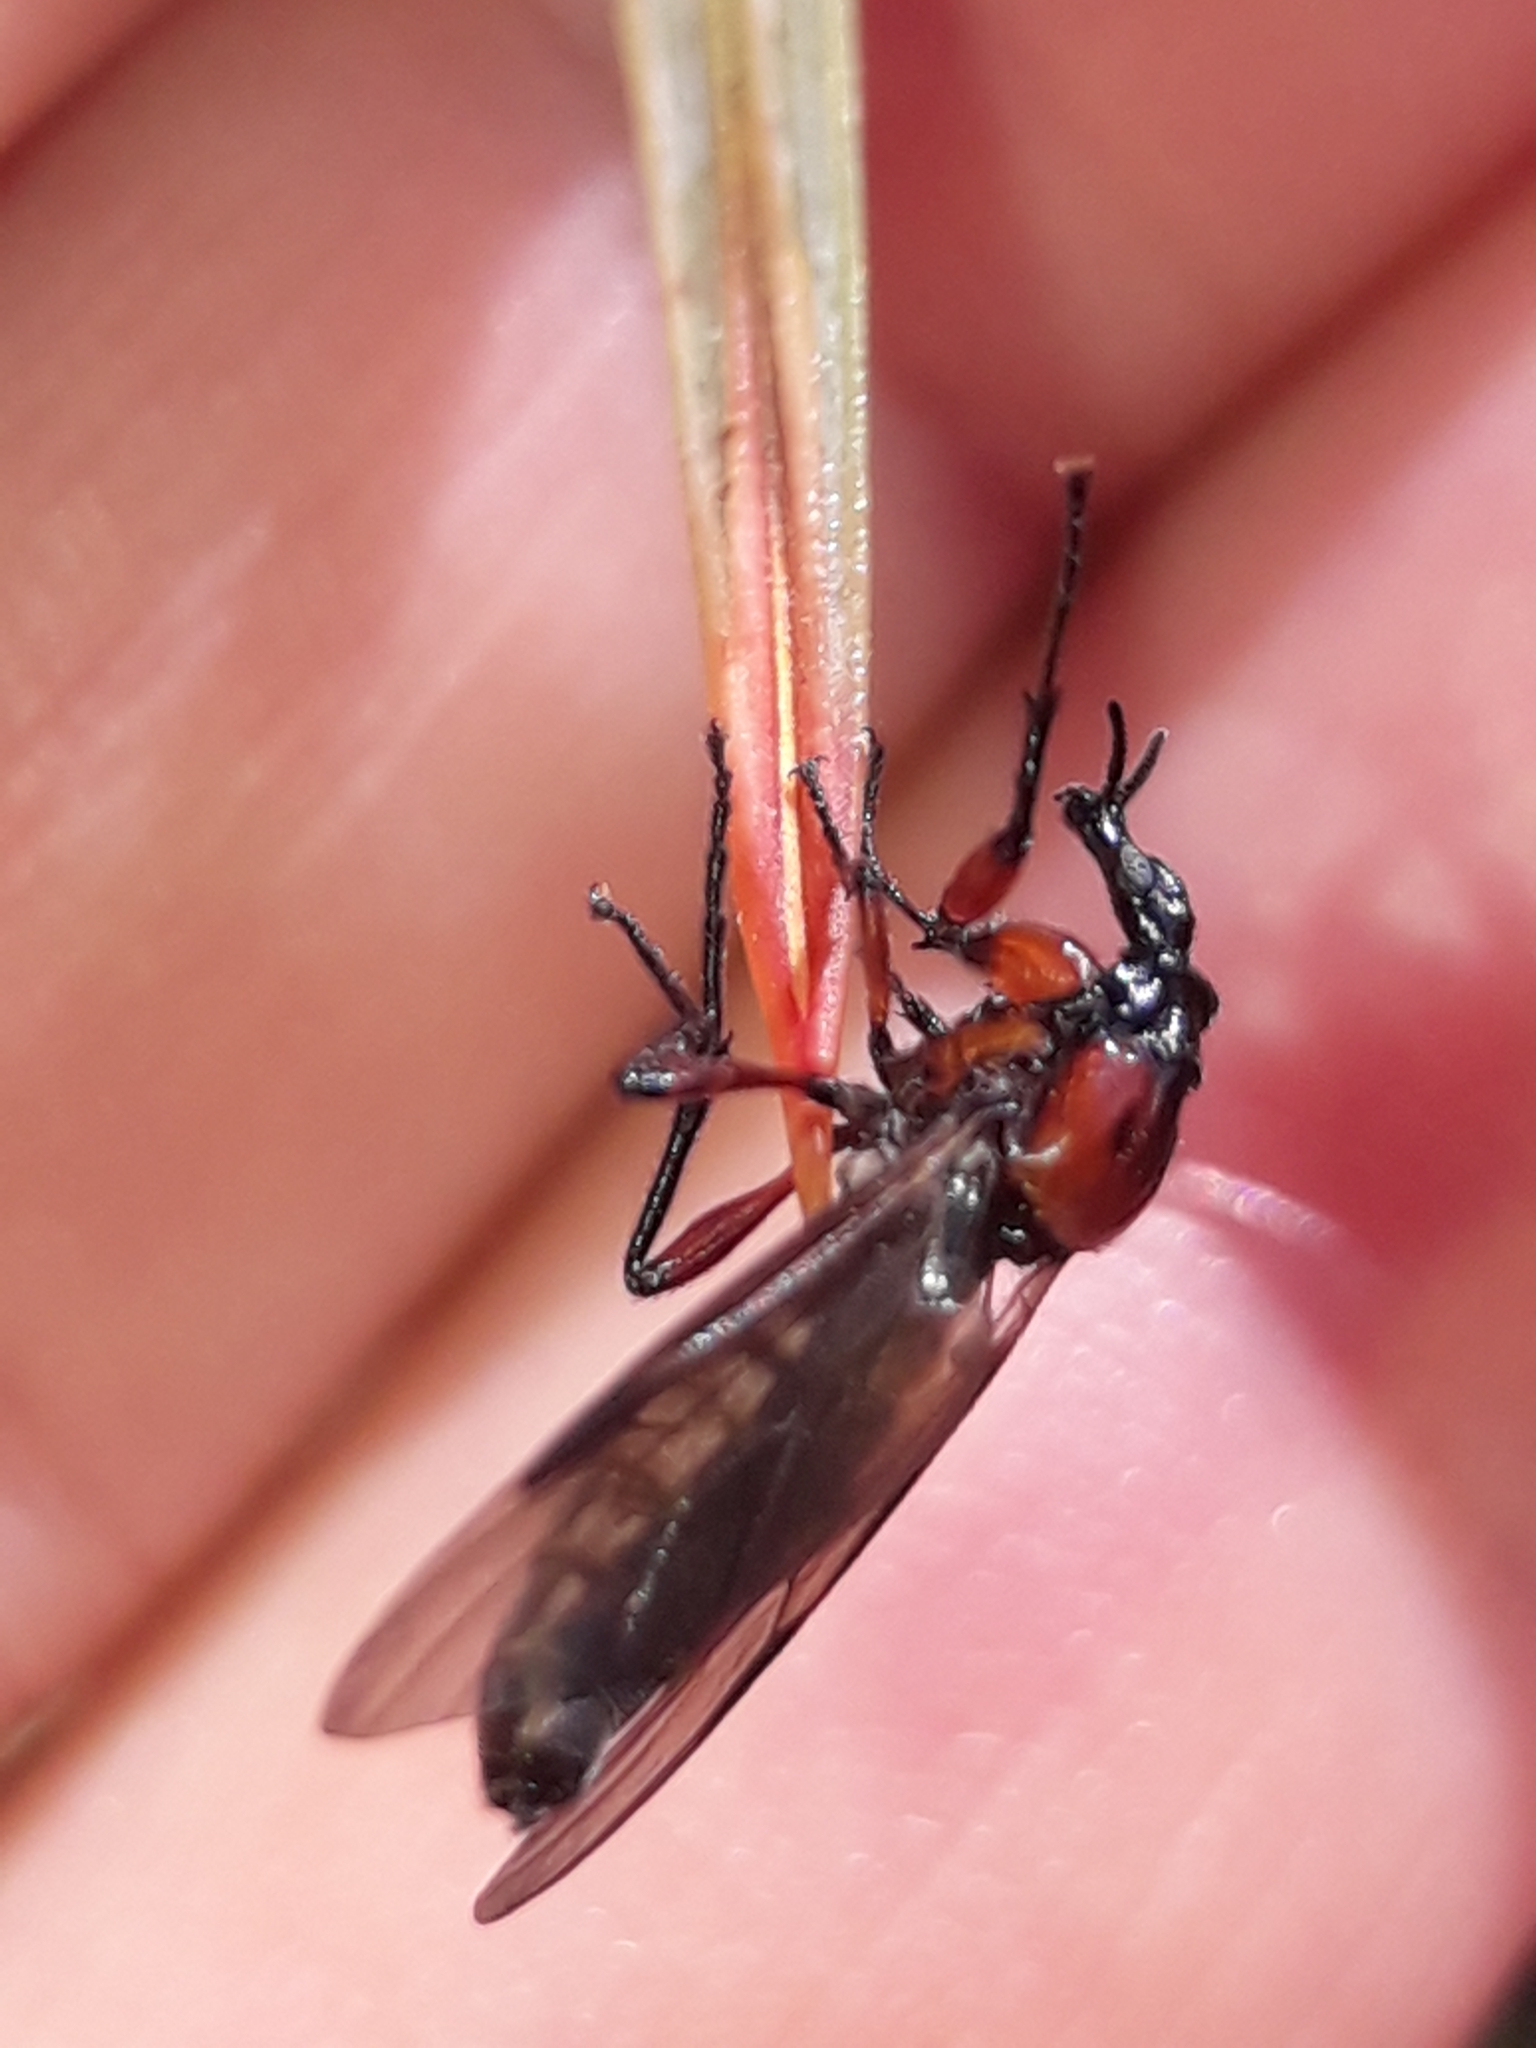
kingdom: Animalia
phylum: Arthropoda
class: Insecta
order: Diptera
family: Bibionidae
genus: Dilophus
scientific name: Dilophus nigrostigma
